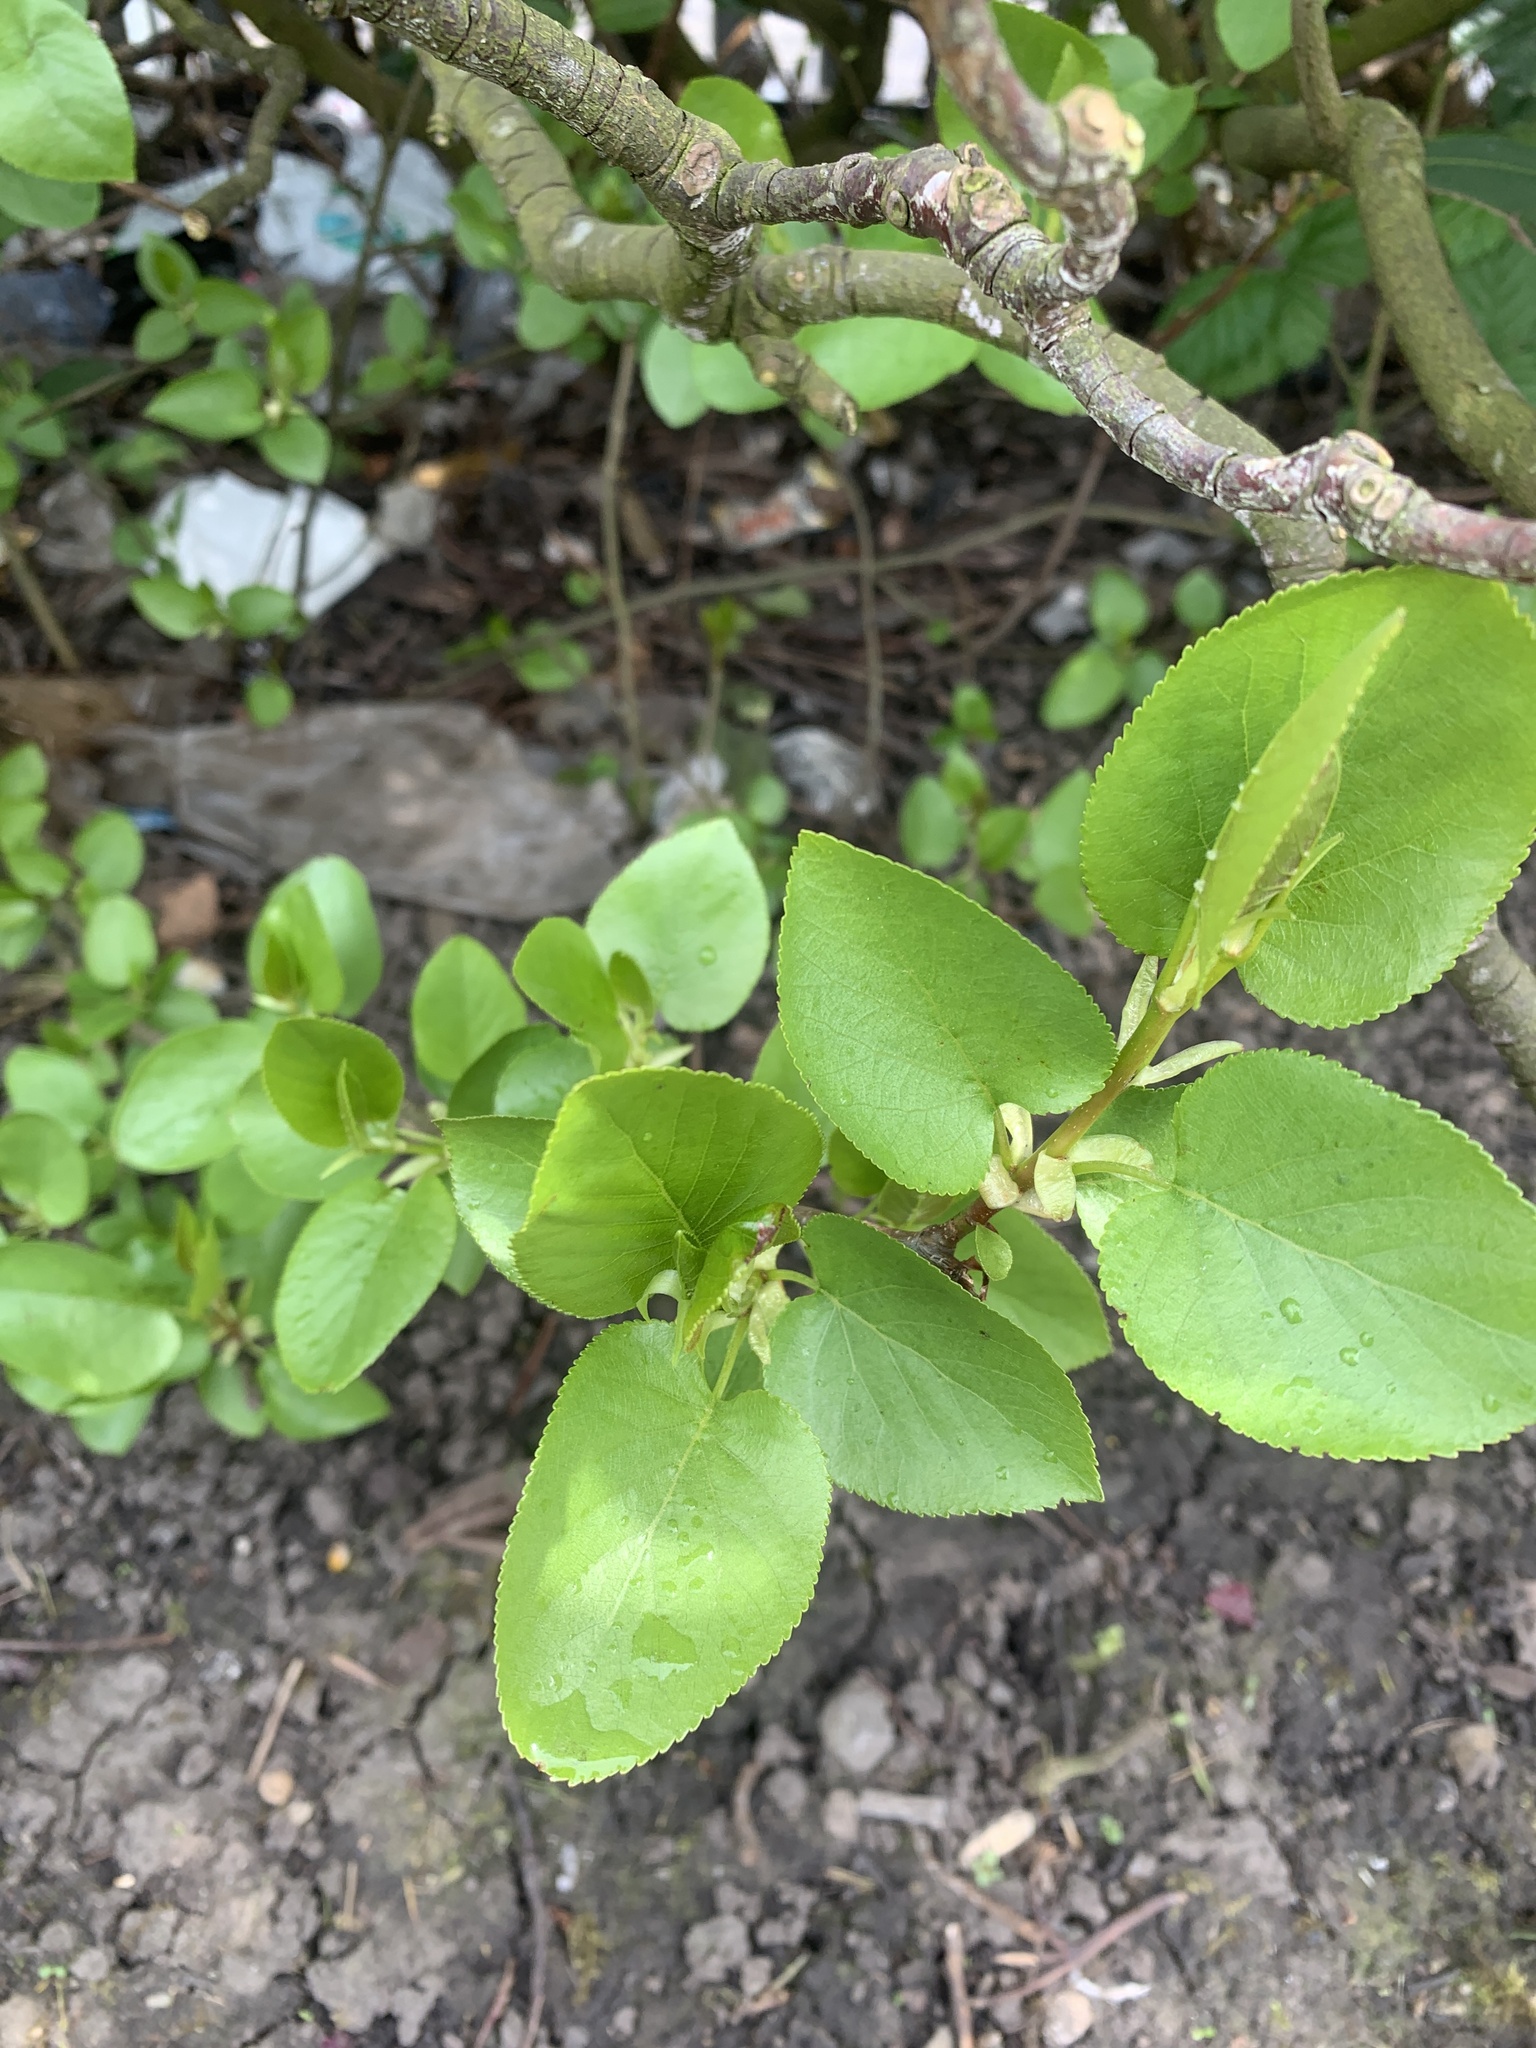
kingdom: Plantae
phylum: Tracheophyta
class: Magnoliopsida
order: Fagales
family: Betulaceae
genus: Alnus
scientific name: Alnus cordata
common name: Italian alder
